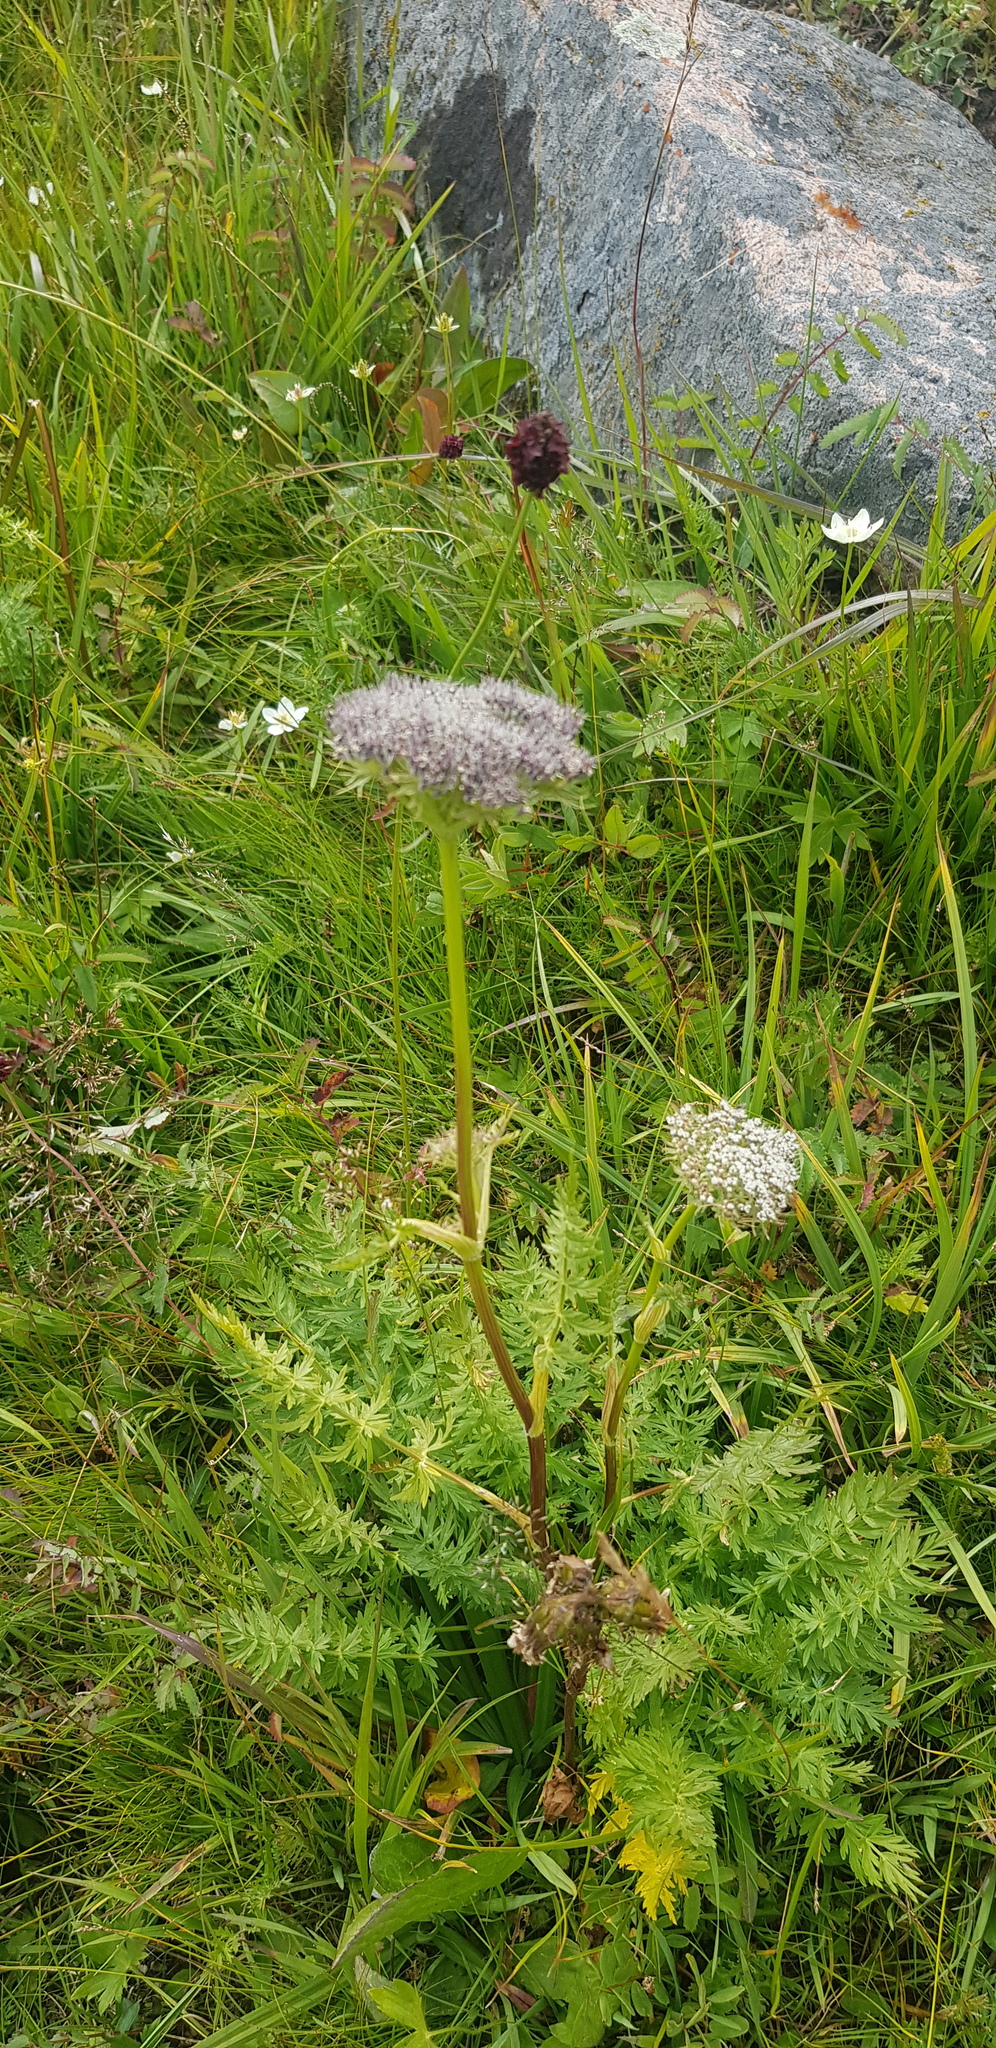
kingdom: Plantae
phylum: Tracheophyta
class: Magnoliopsida
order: Apiales
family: Apiaceae
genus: Seseli
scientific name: Seseli condensatum
